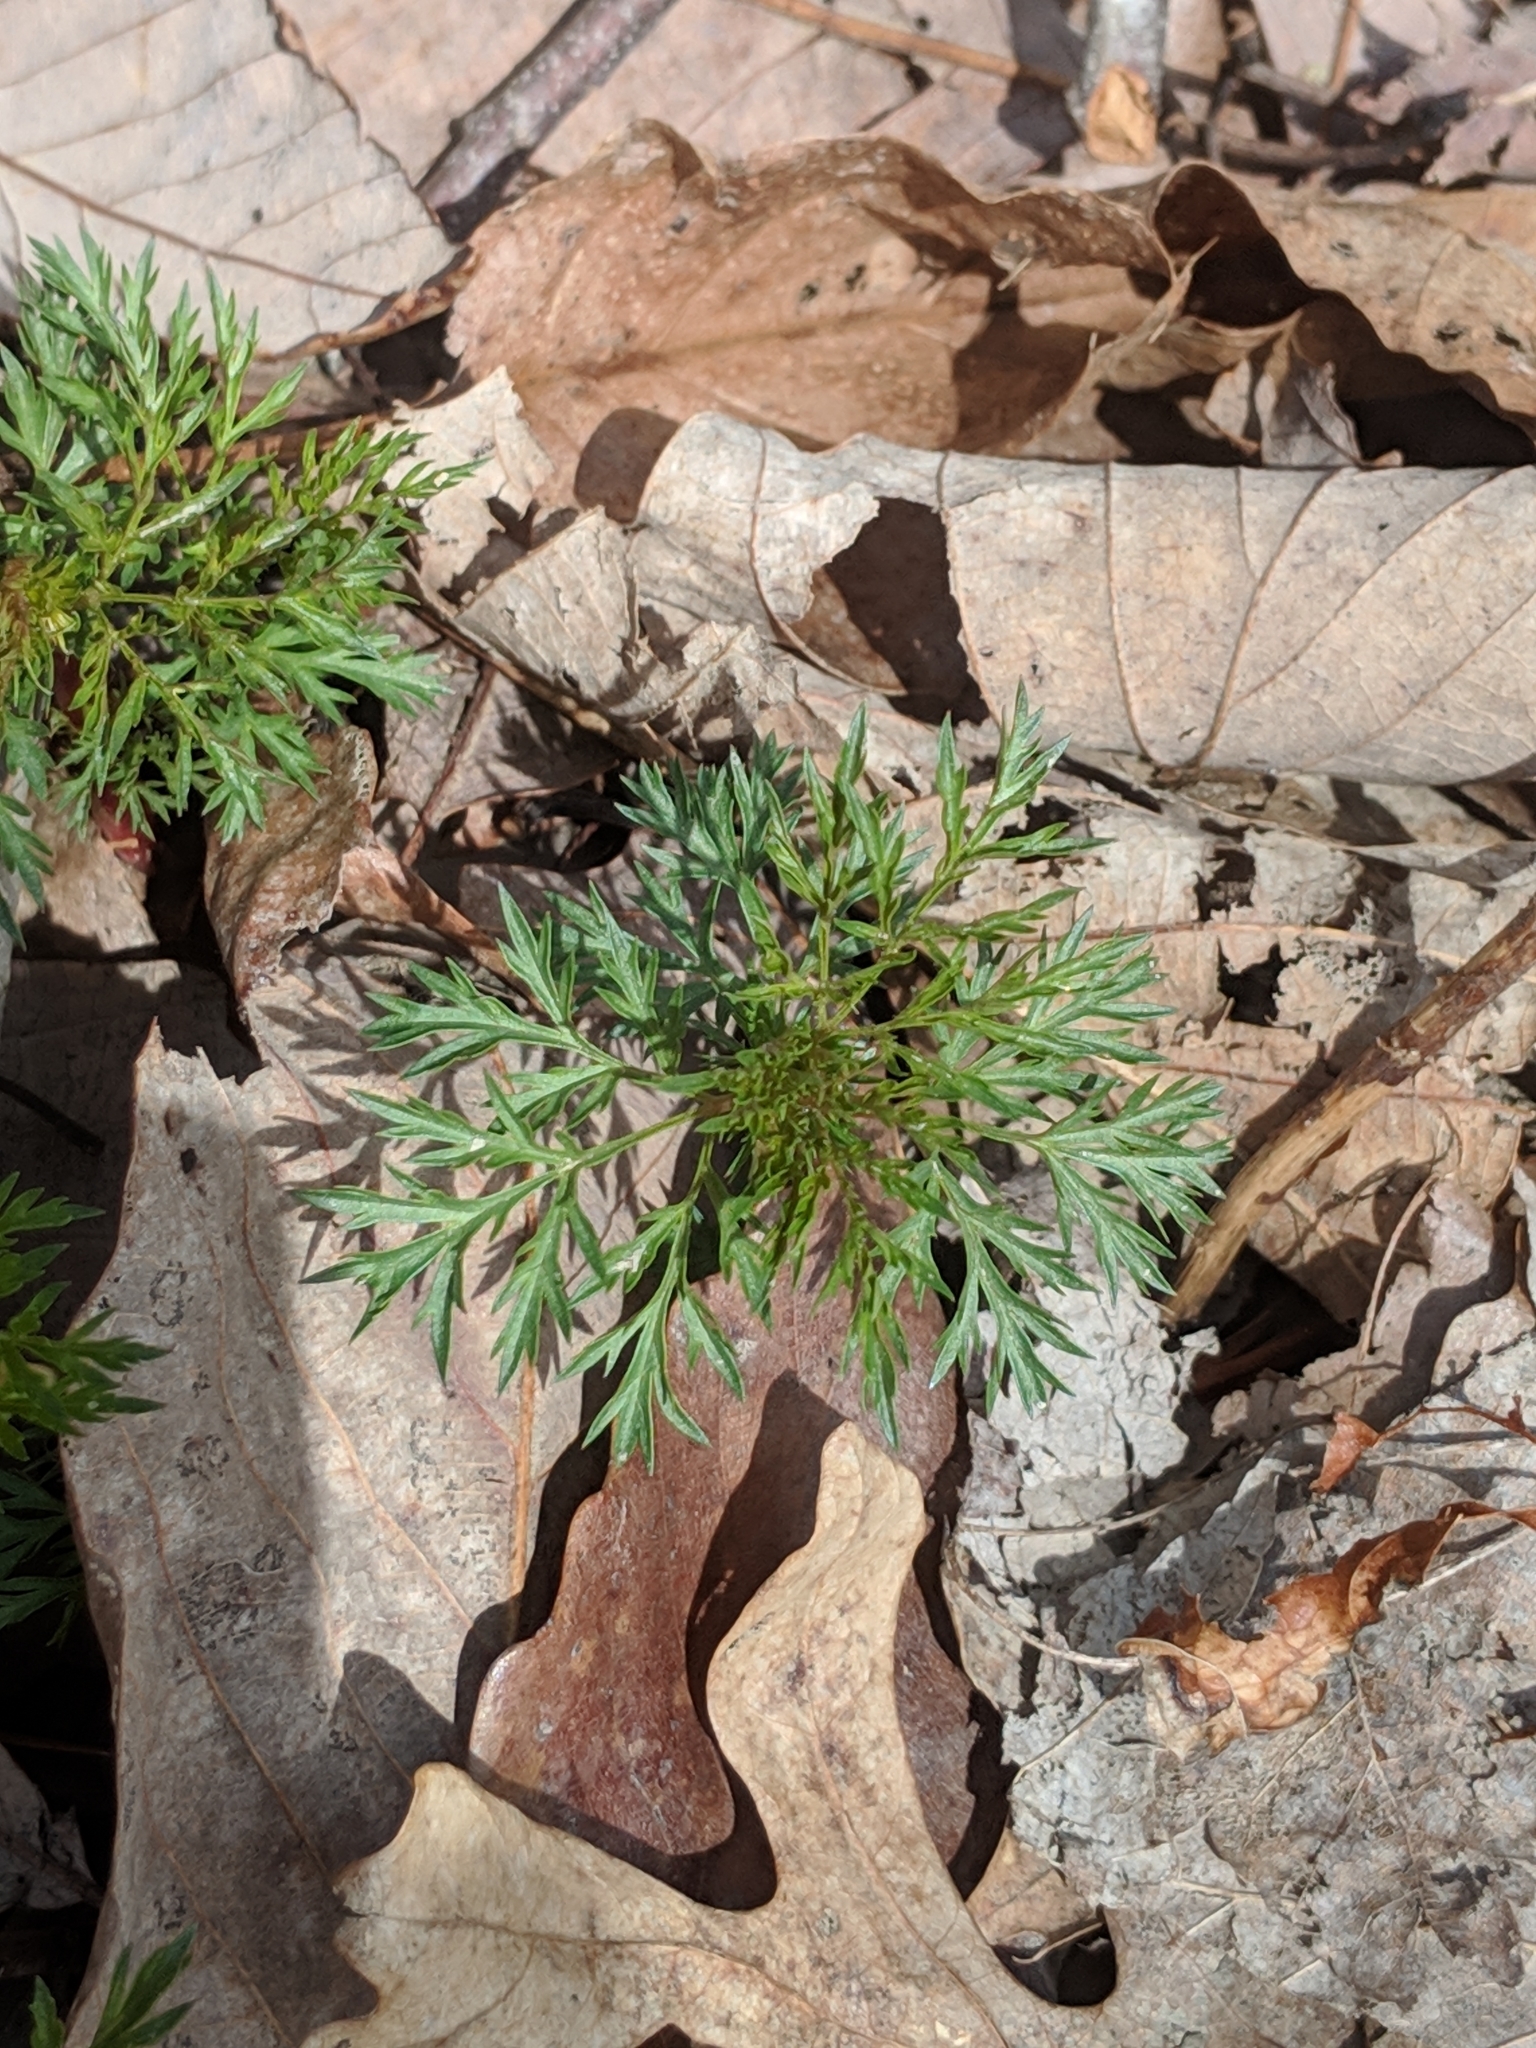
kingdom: Plantae
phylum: Tracheophyta
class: Magnoliopsida
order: Rosales
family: Rosaceae
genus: Gillenia
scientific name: Gillenia stipulata
